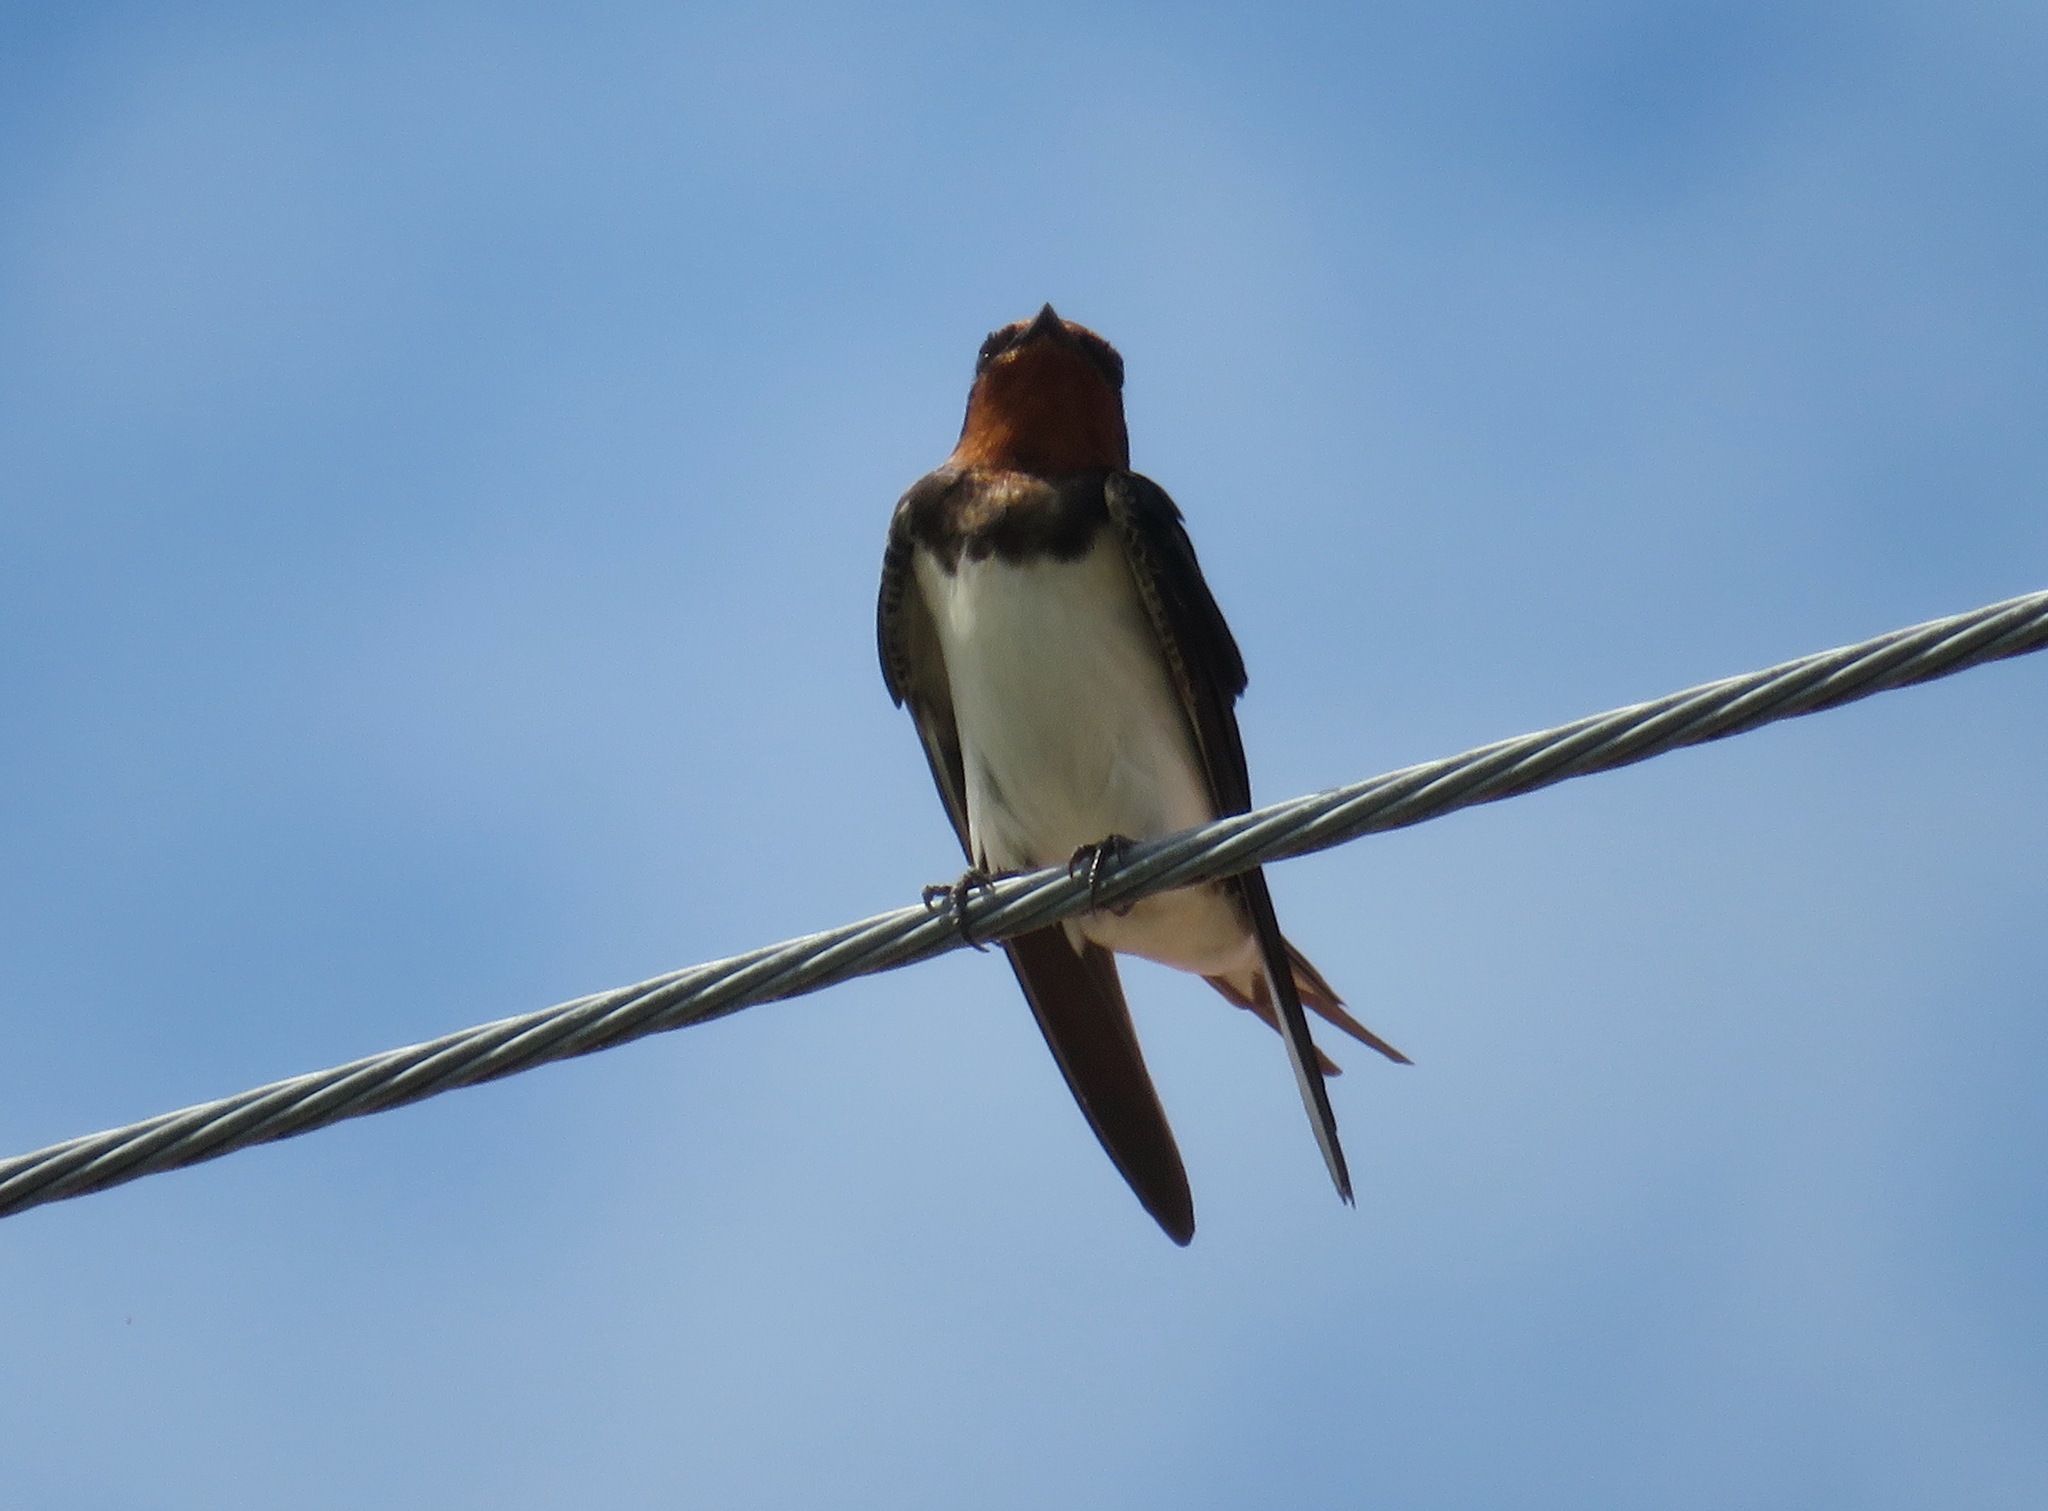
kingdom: Animalia
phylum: Chordata
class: Aves
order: Passeriformes
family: Hirundinidae
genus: Hirundo
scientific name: Hirundo rustica
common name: Barn swallow
